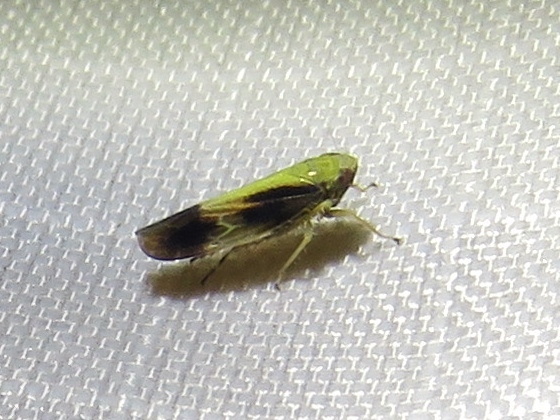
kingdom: Animalia
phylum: Arthropoda
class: Insecta
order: Hemiptera
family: Cicadellidae
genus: Graminella
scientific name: Graminella nigripennis
